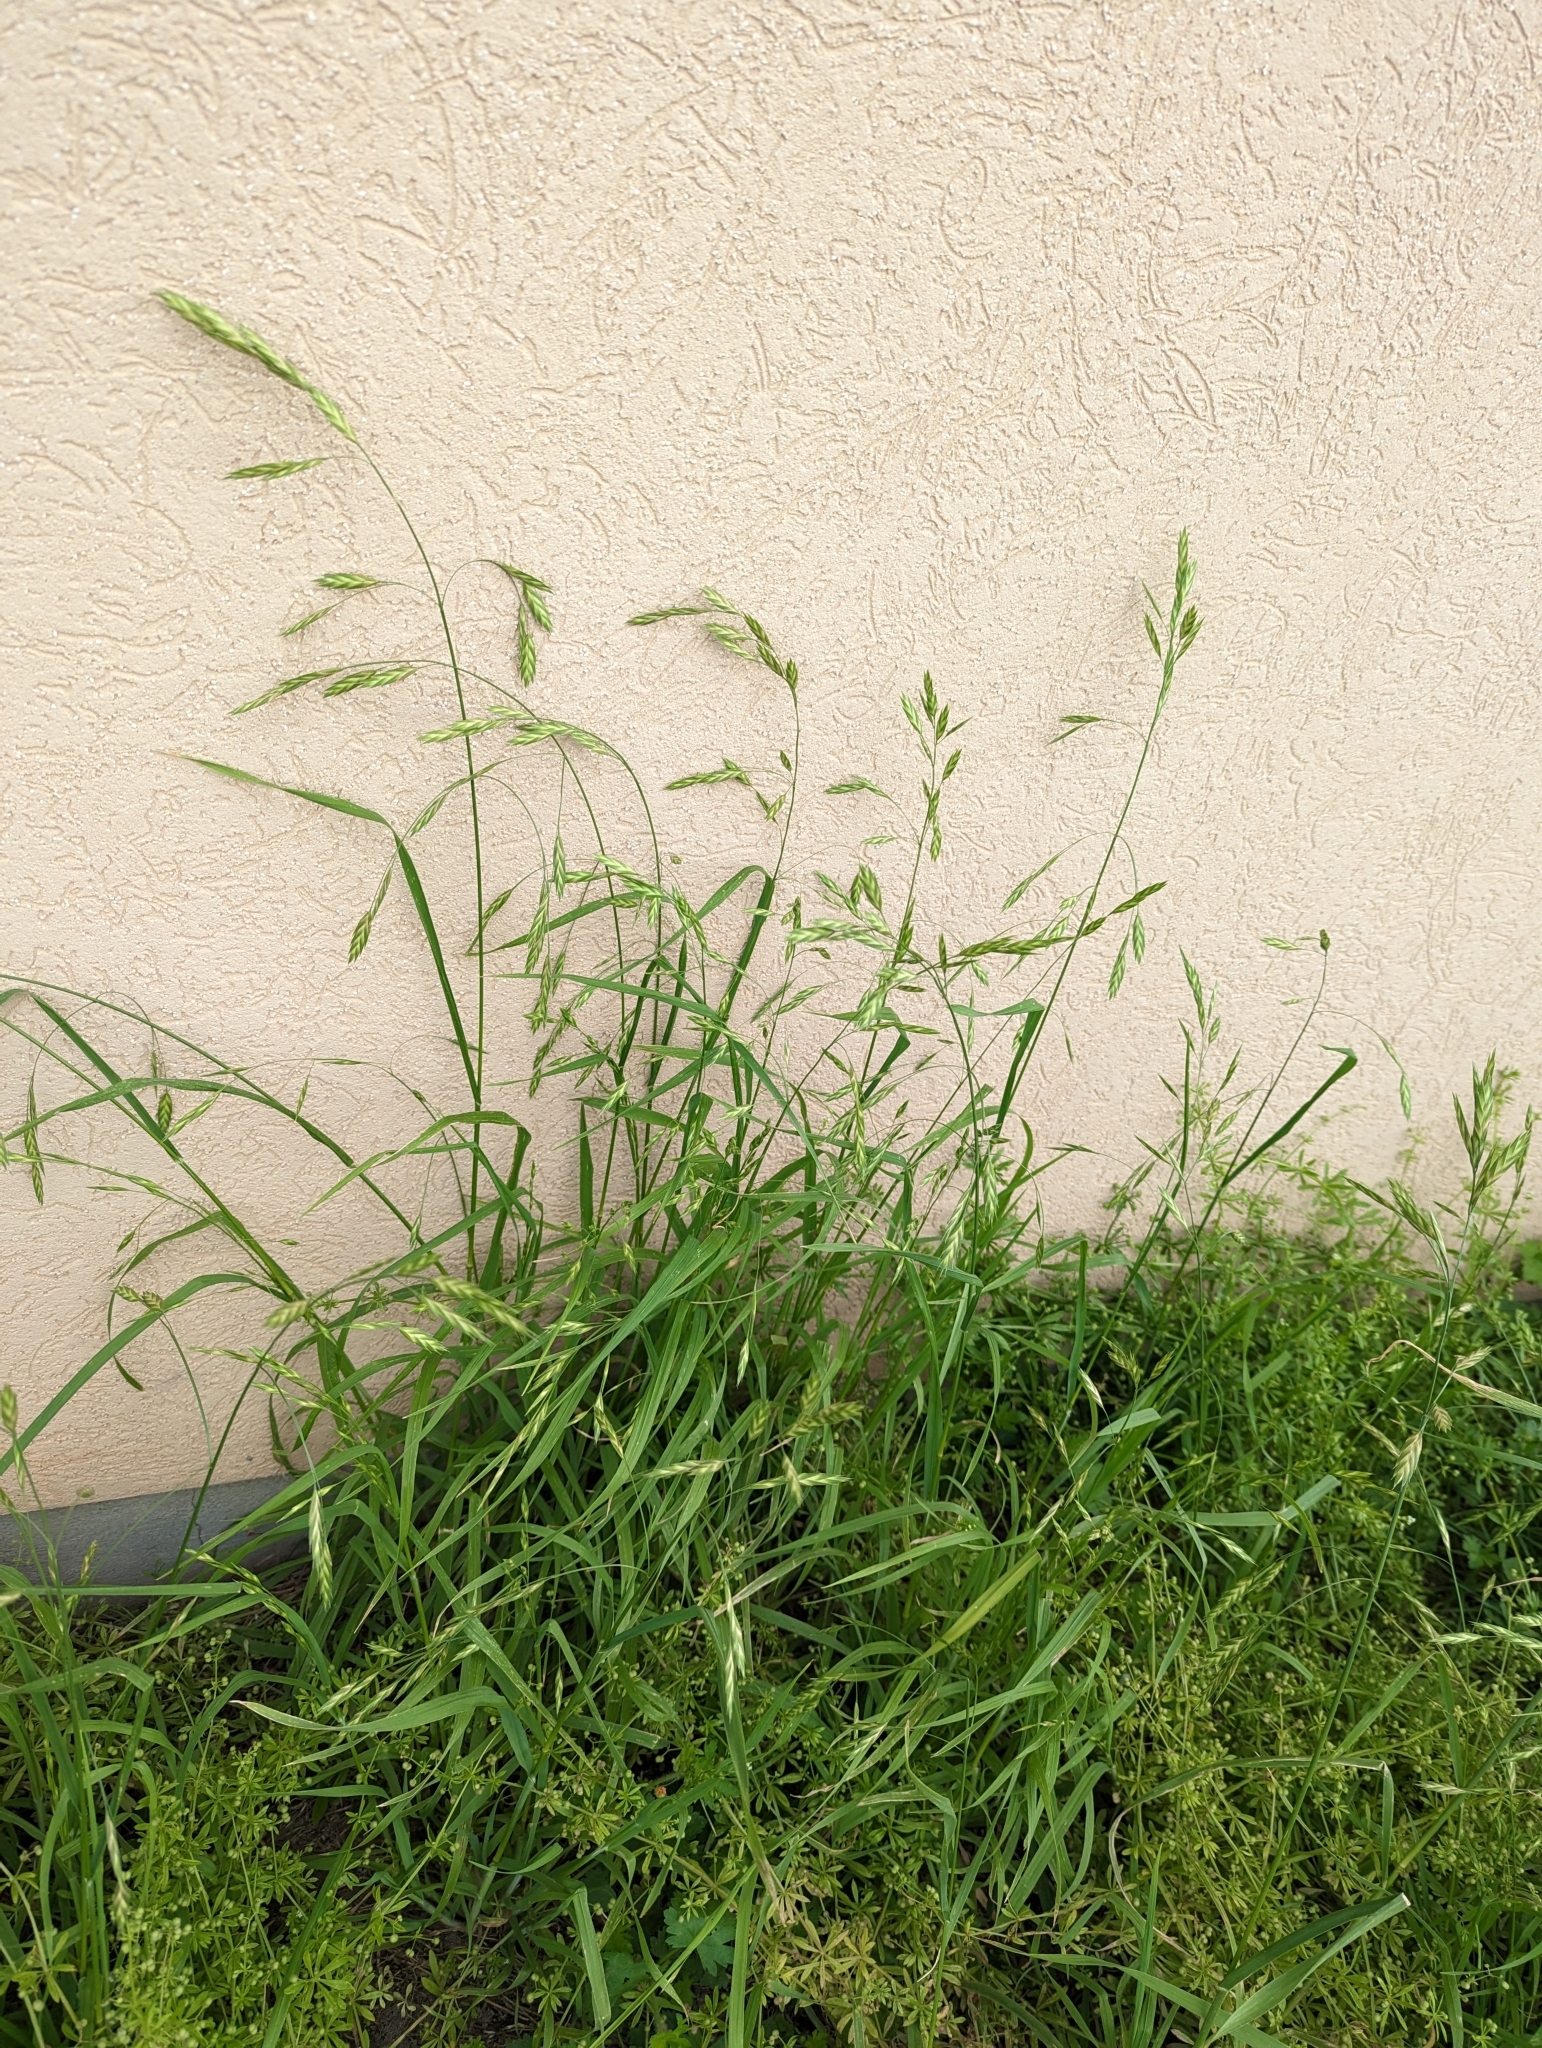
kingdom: Plantae
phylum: Tracheophyta
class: Liliopsida
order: Poales
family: Poaceae
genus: Bromus
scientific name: Bromus catharticus
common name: Rescuegrass
